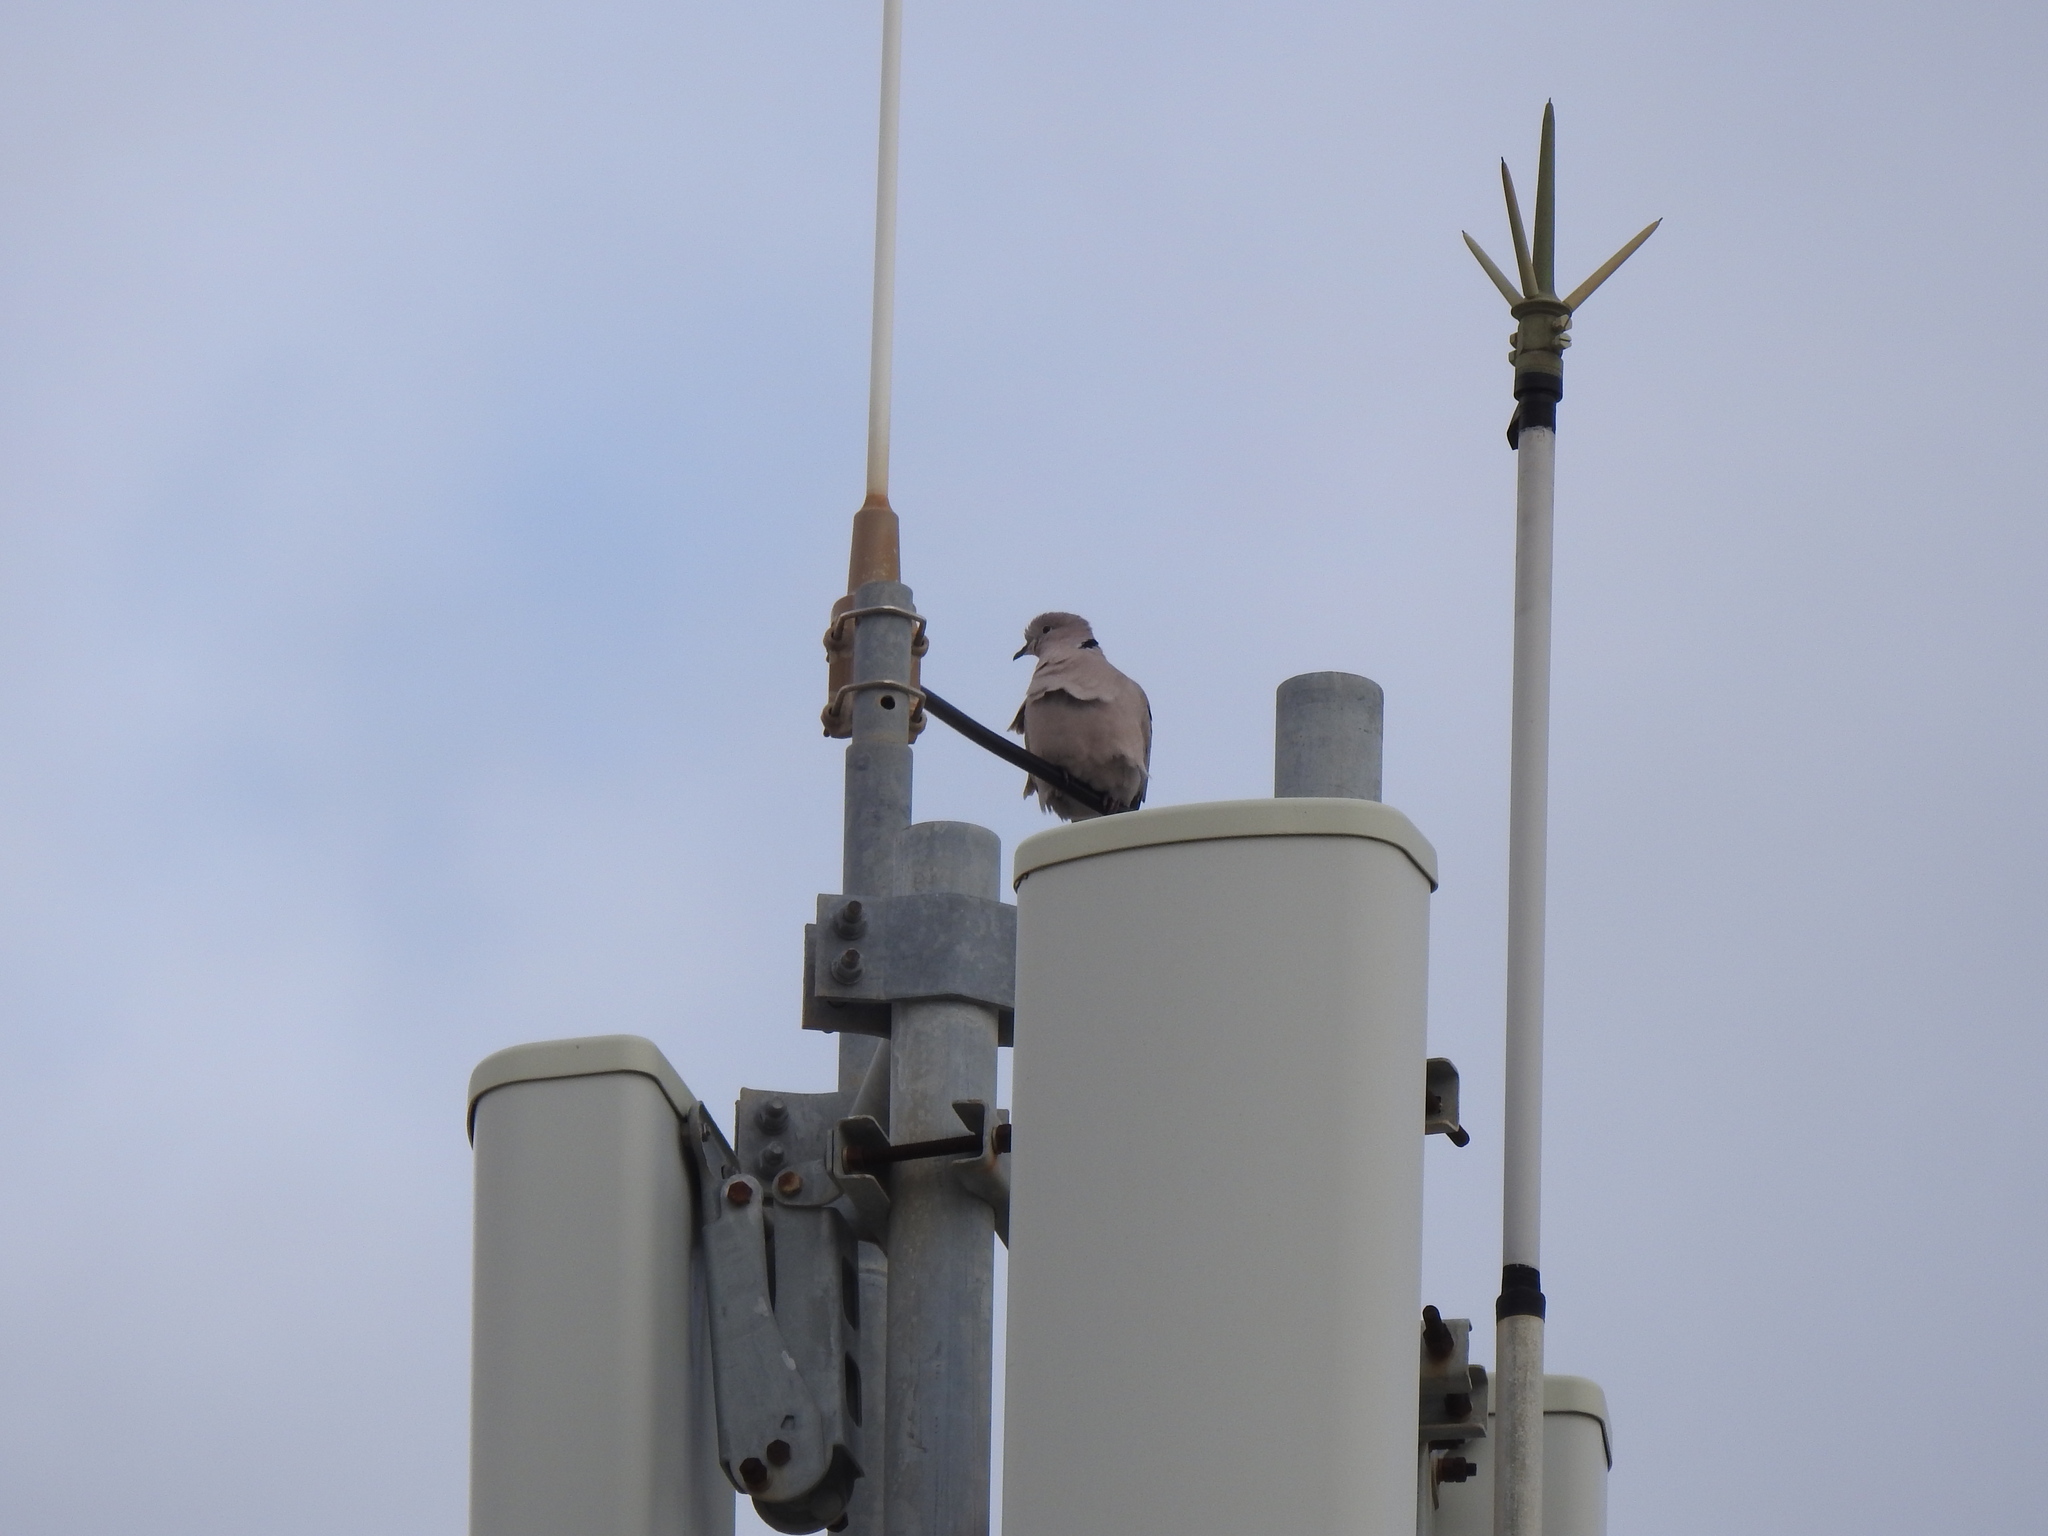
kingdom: Animalia
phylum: Chordata
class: Aves
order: Columbiformes
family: Columbidae
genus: Streptopelia
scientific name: Streptopelia decaocto
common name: Eurasian collared dove
